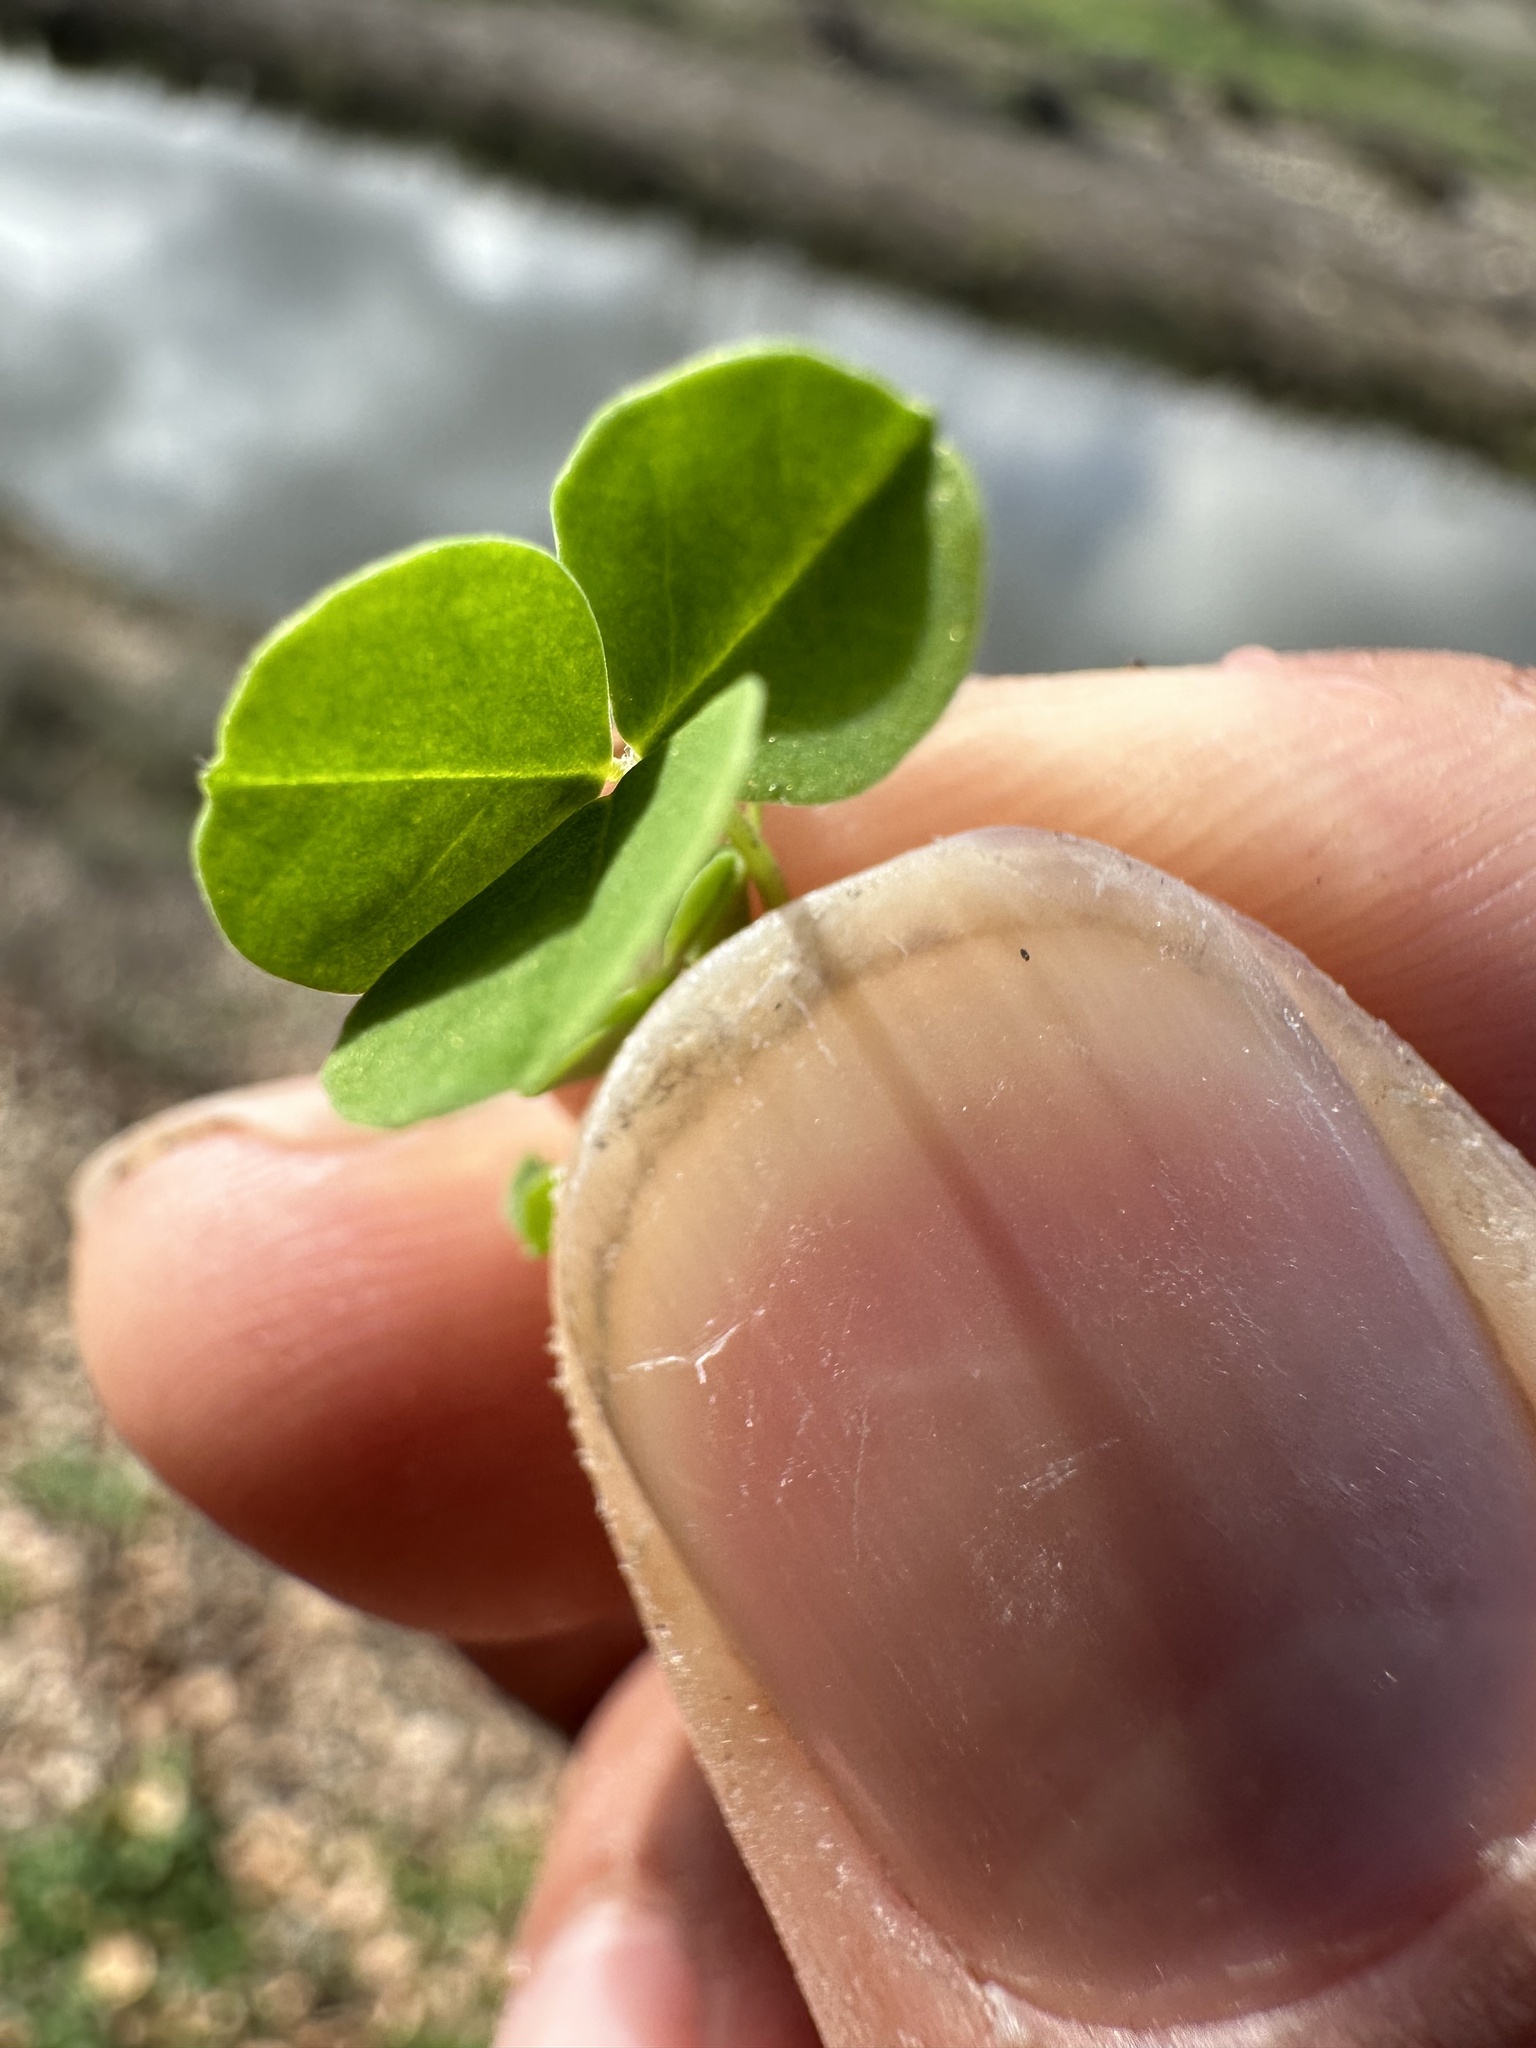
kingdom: Plantae
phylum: Tracheophyta
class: Magnoliopsida
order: Fabales
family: Fabaceae
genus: Medicago
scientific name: Medicago polymorpha
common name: Burclover
